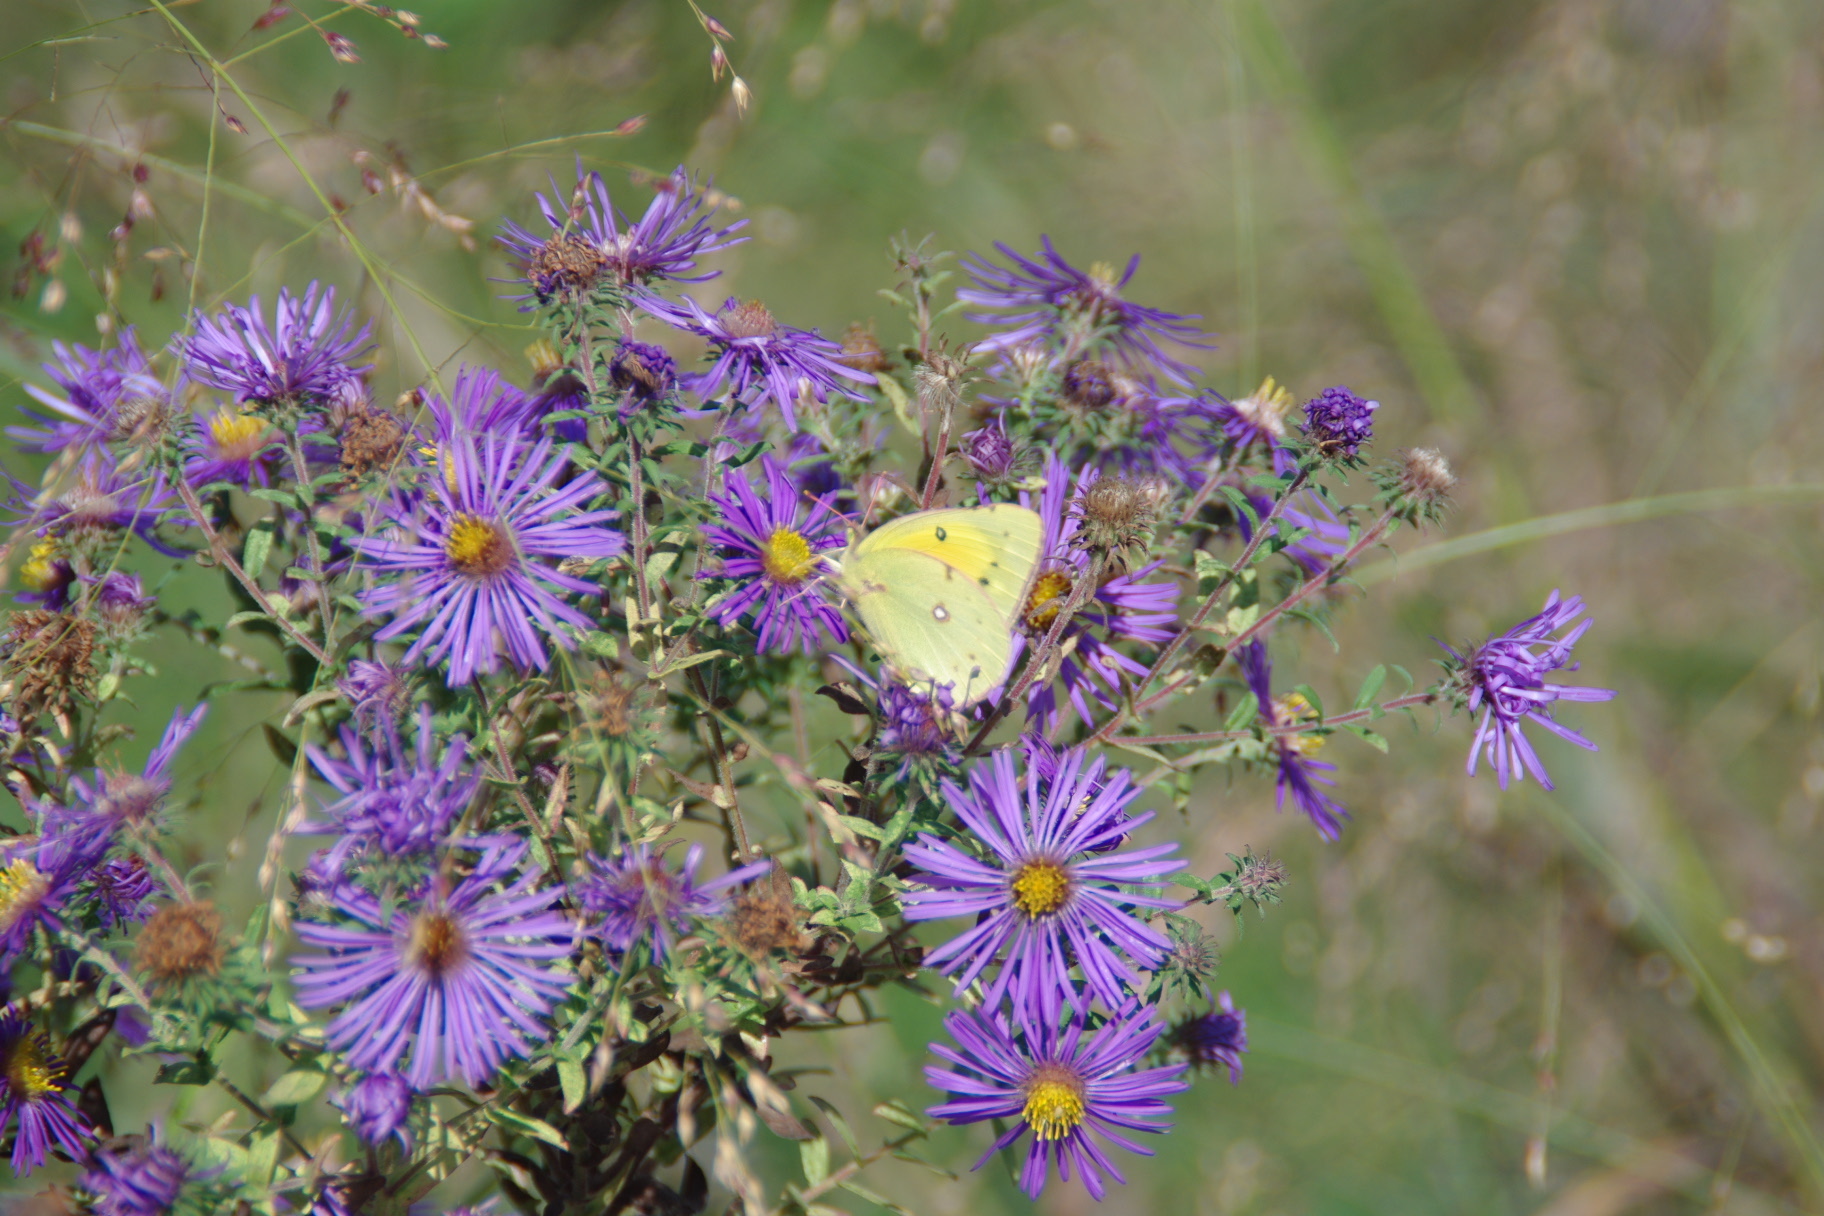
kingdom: Animalia
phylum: Arthropoda
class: Insecta
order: Lepidoptera
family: Pieridae
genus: Colias
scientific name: Colias eurytheme
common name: Alfalfa butterfly
